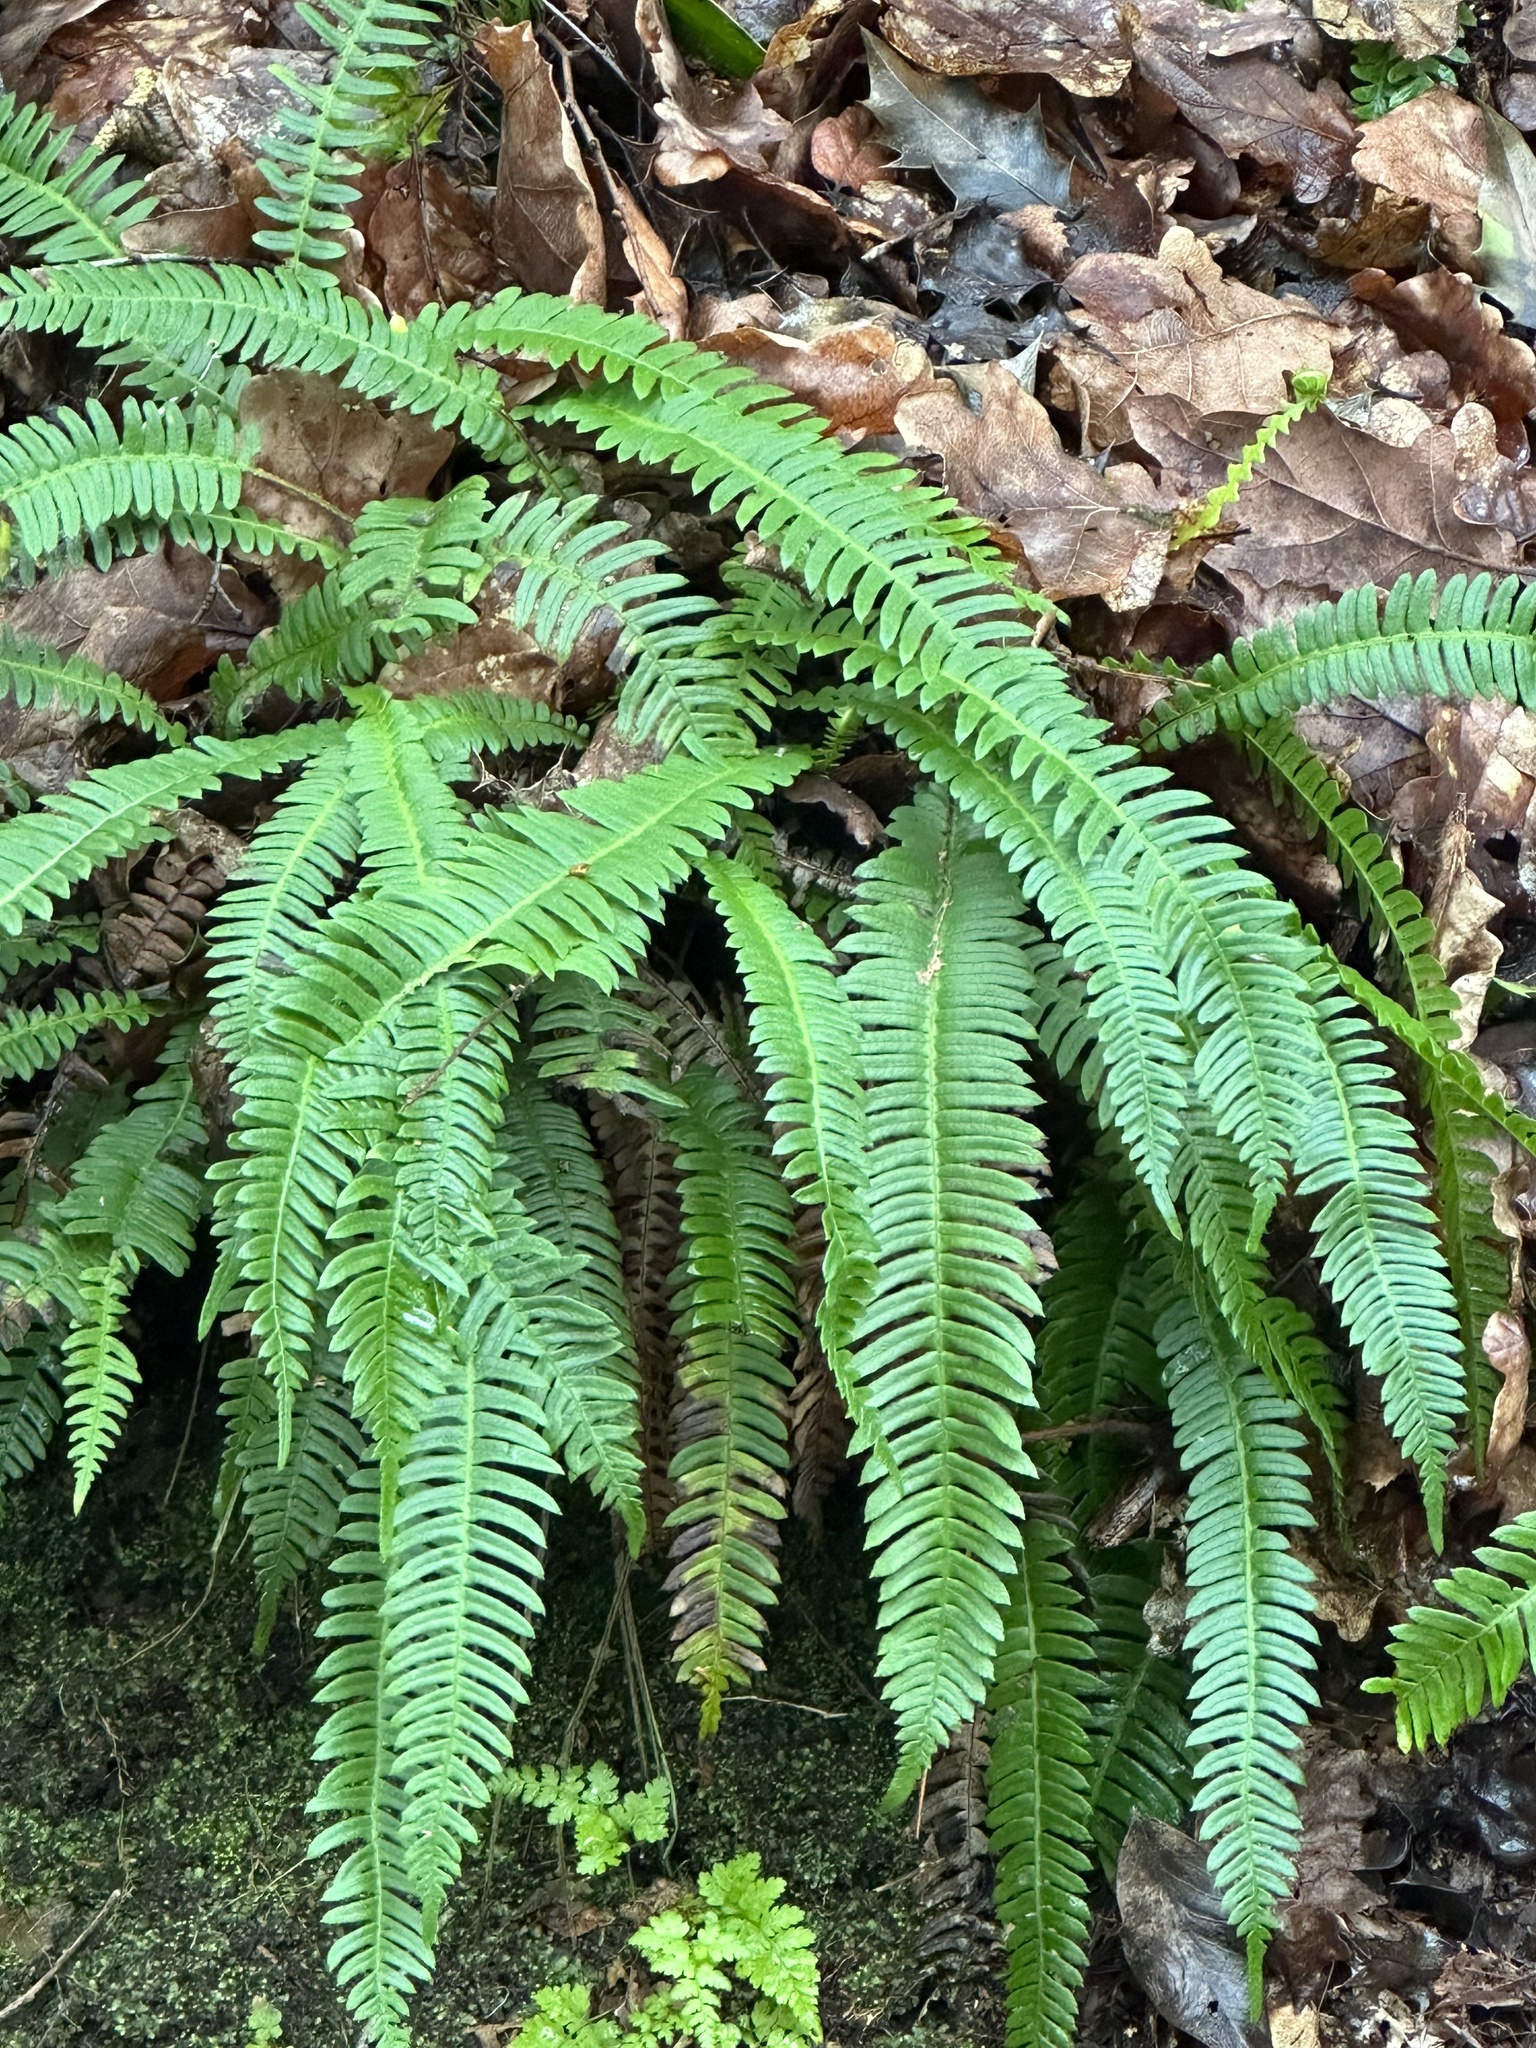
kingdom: Plantae
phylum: Tracheophyta
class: Polypodiopsida
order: Polypodiales
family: Blechnaceae
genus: Struthiopteris
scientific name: Struthiopteris spicant
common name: Deer fern
